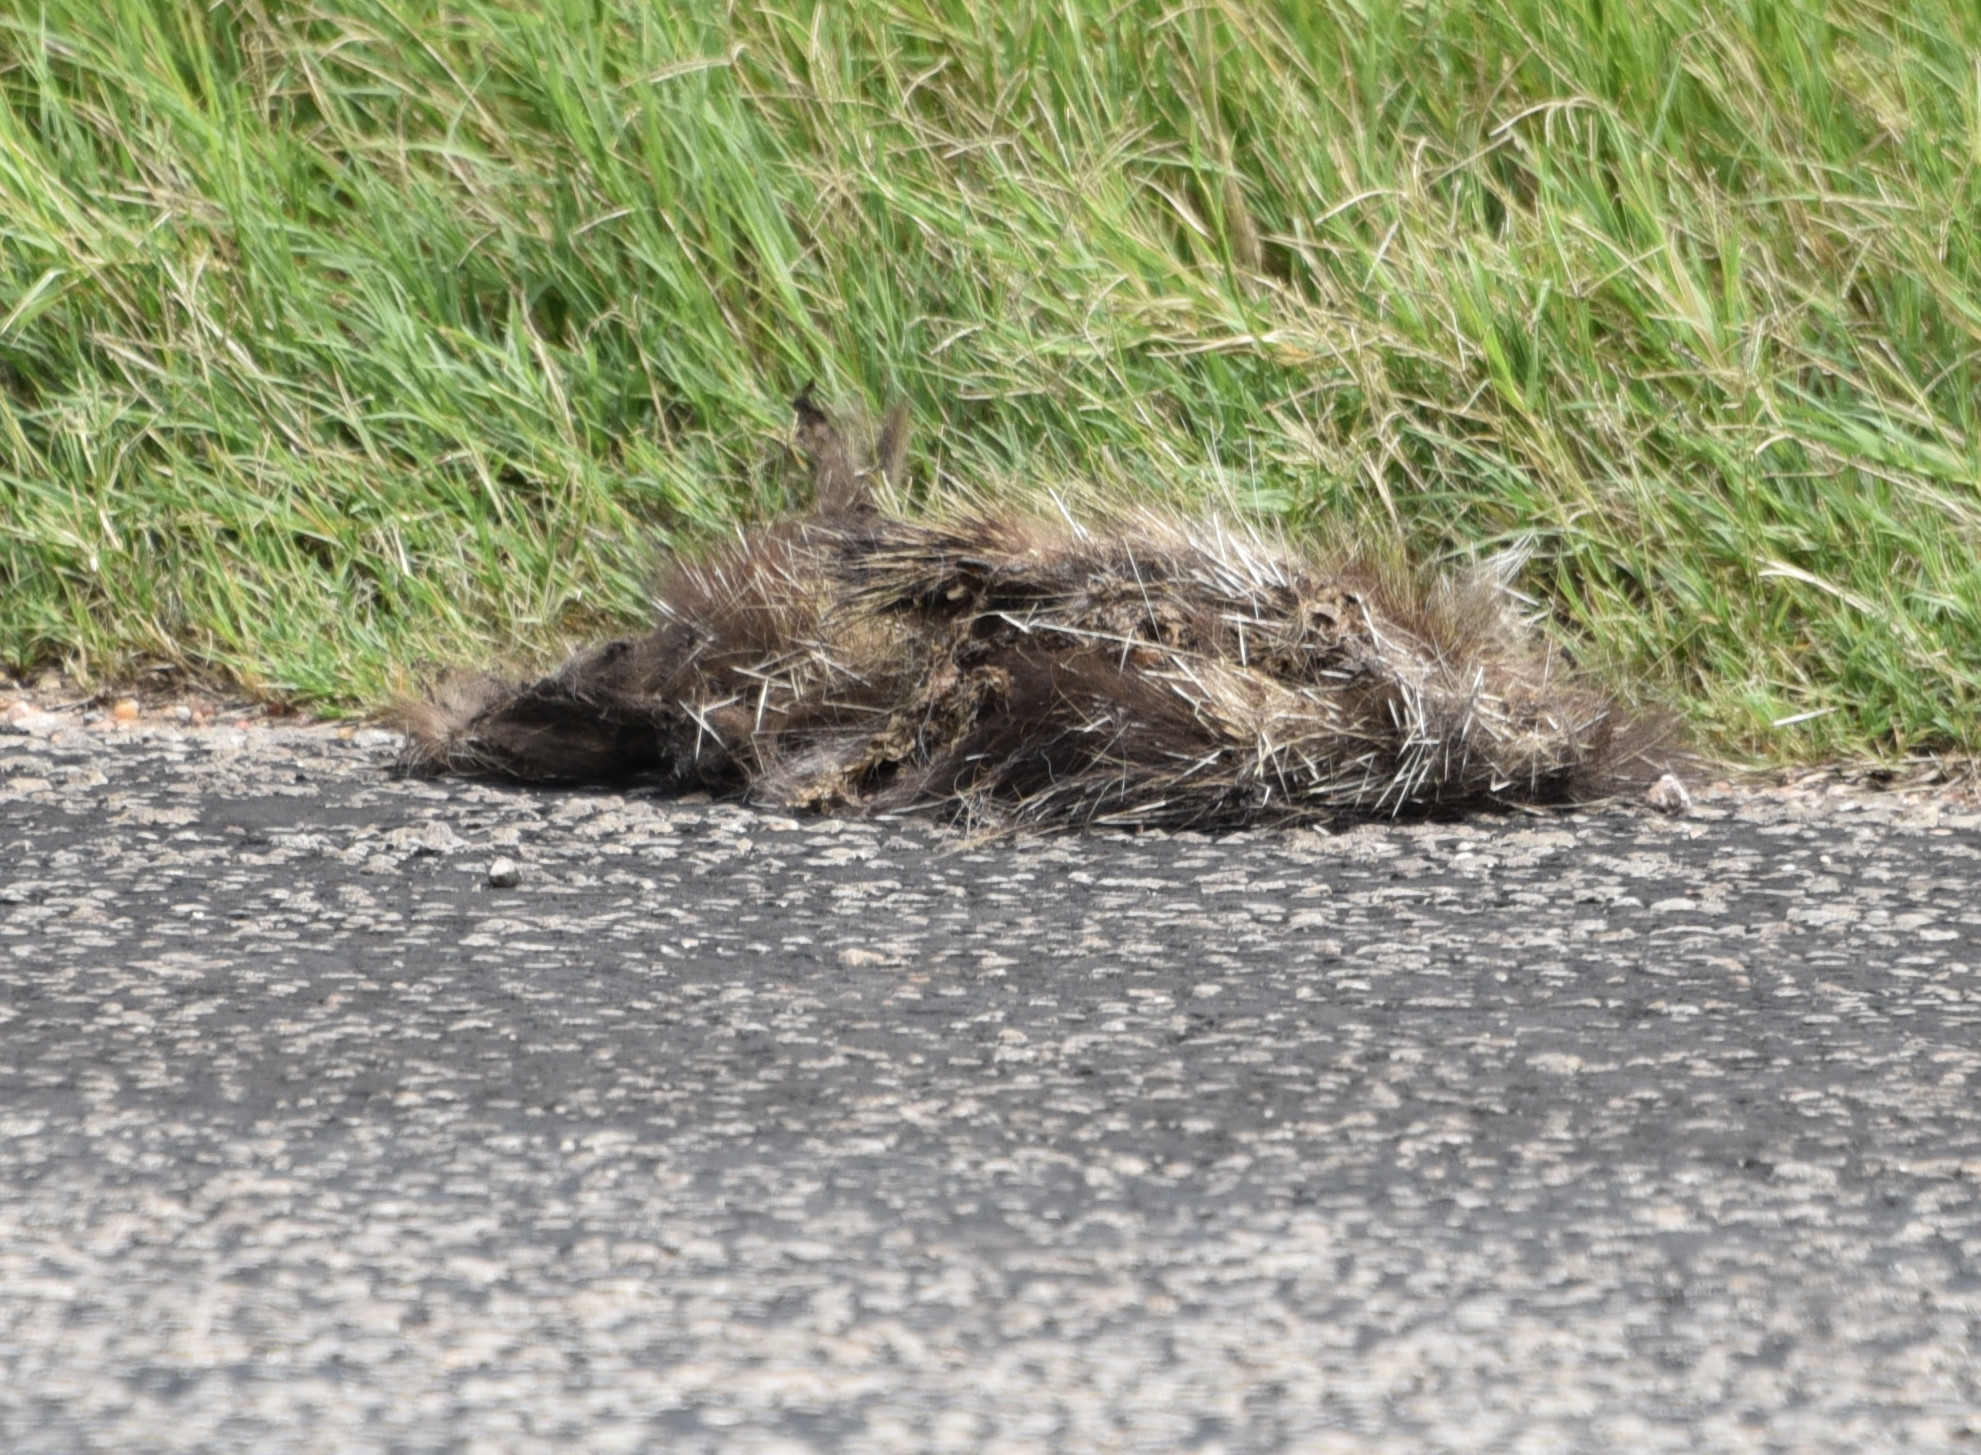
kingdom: Animalia
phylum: Chordata
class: Mammalia
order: Rodentia
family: Erethizontidae
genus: Erethizon
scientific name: Erethizon dorsatus
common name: North american porcupine
